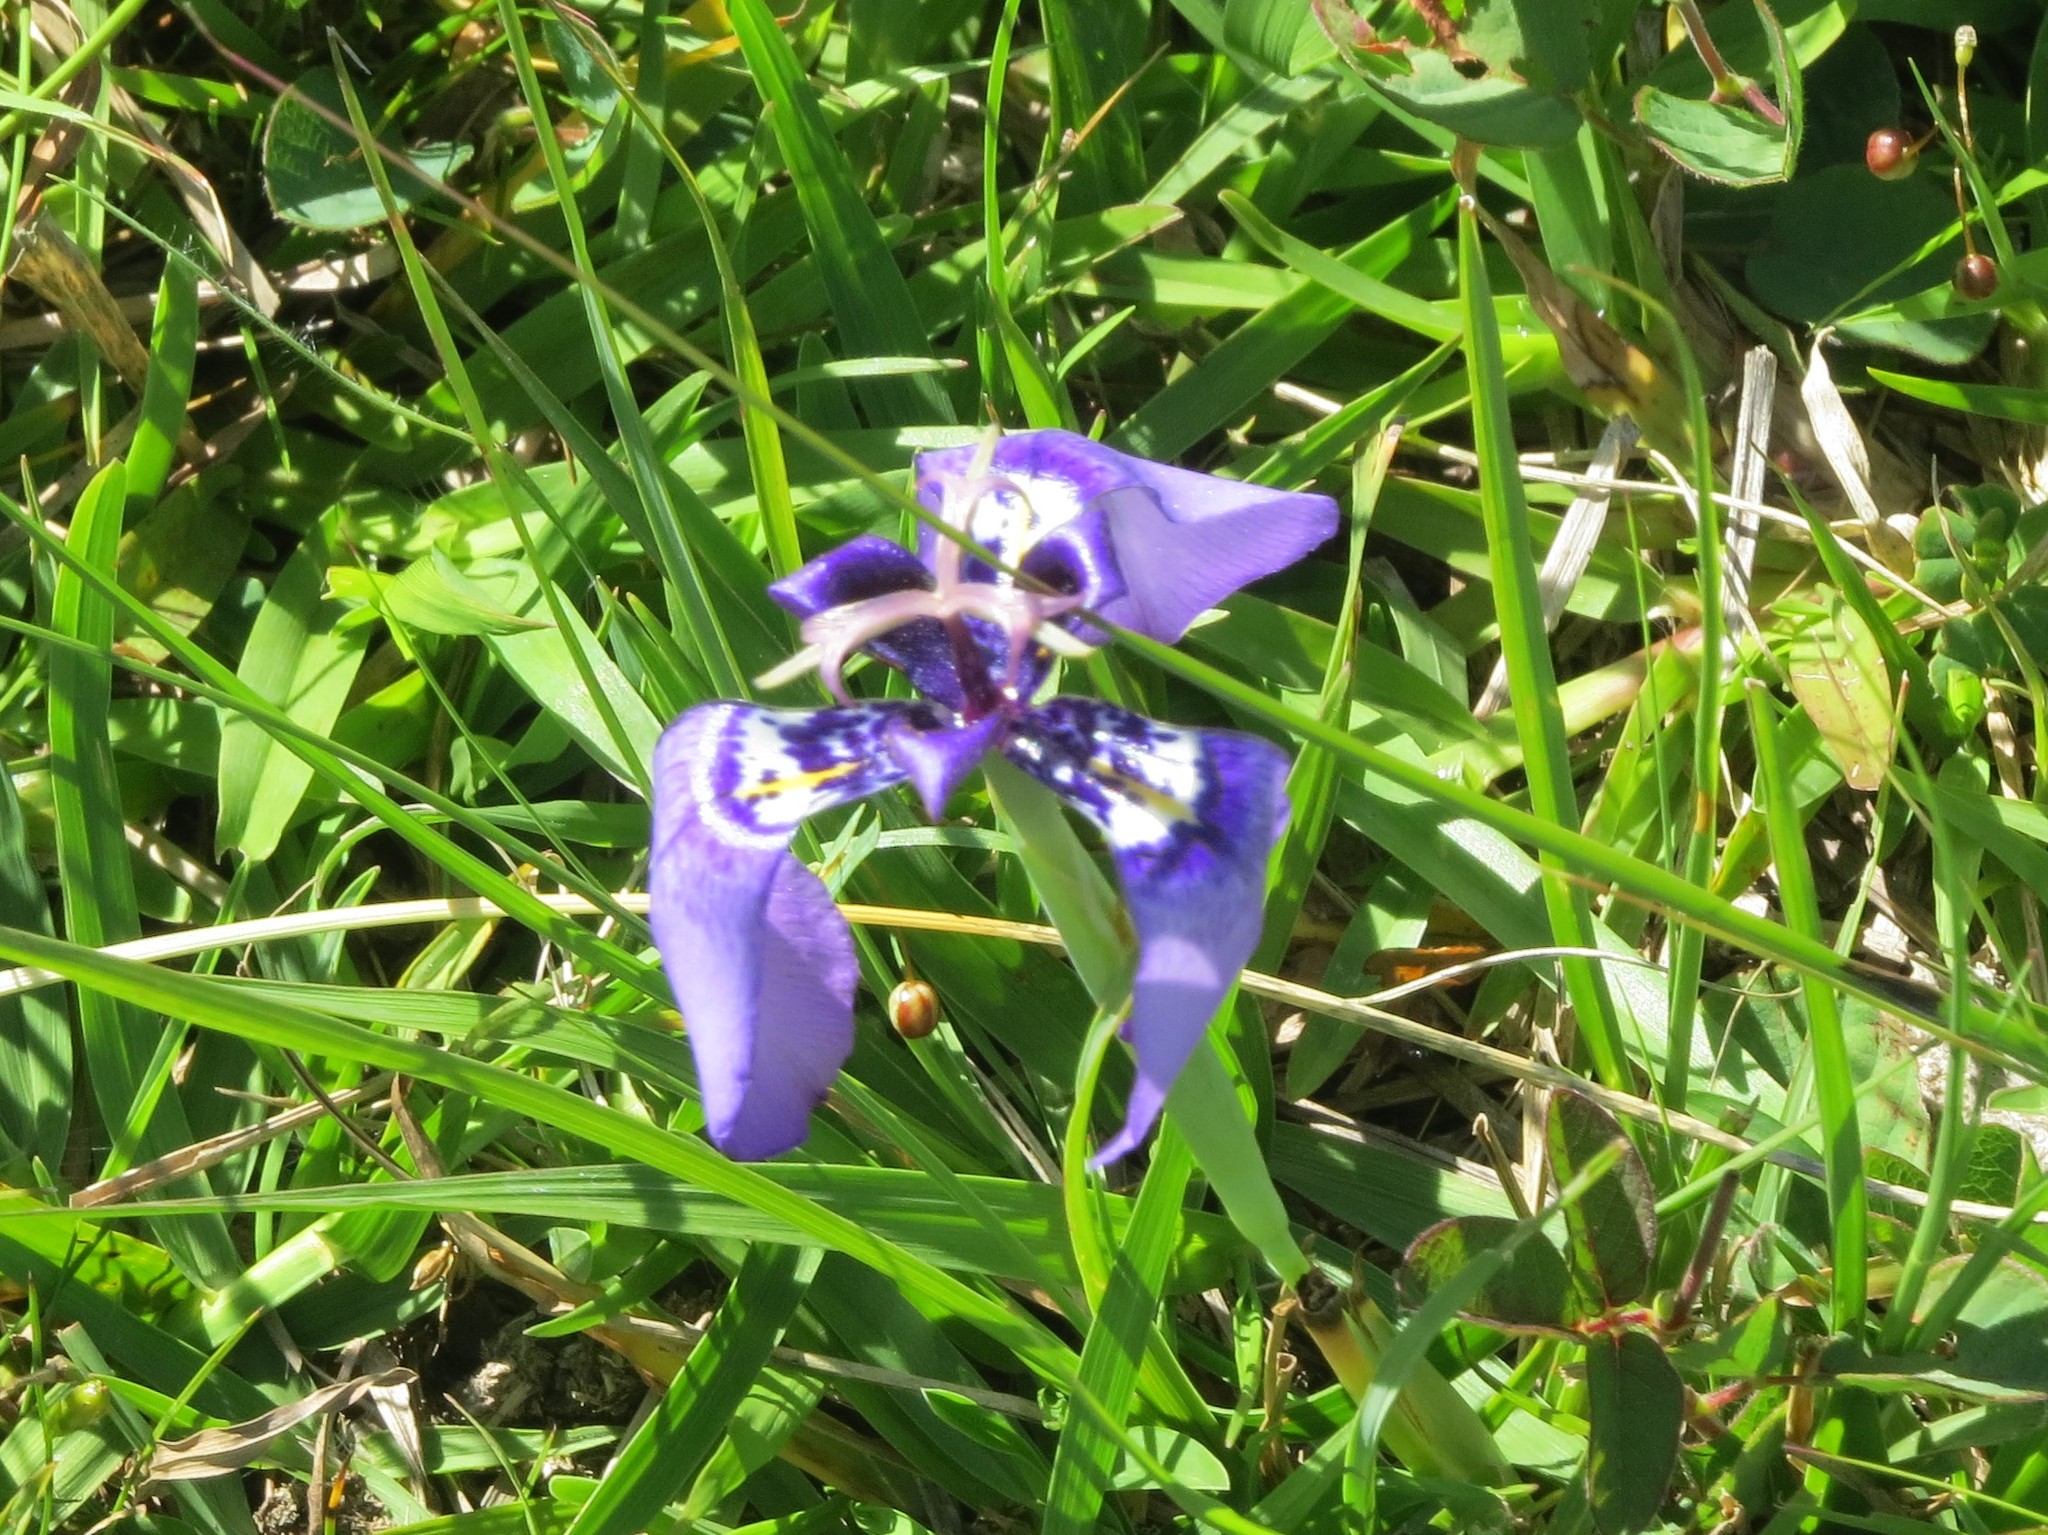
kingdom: Plantae
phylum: Tracheophyta
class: Liliopsida
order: Asparagales
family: Iridaceae
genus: Herbertia
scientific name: Herbertia quareimana
